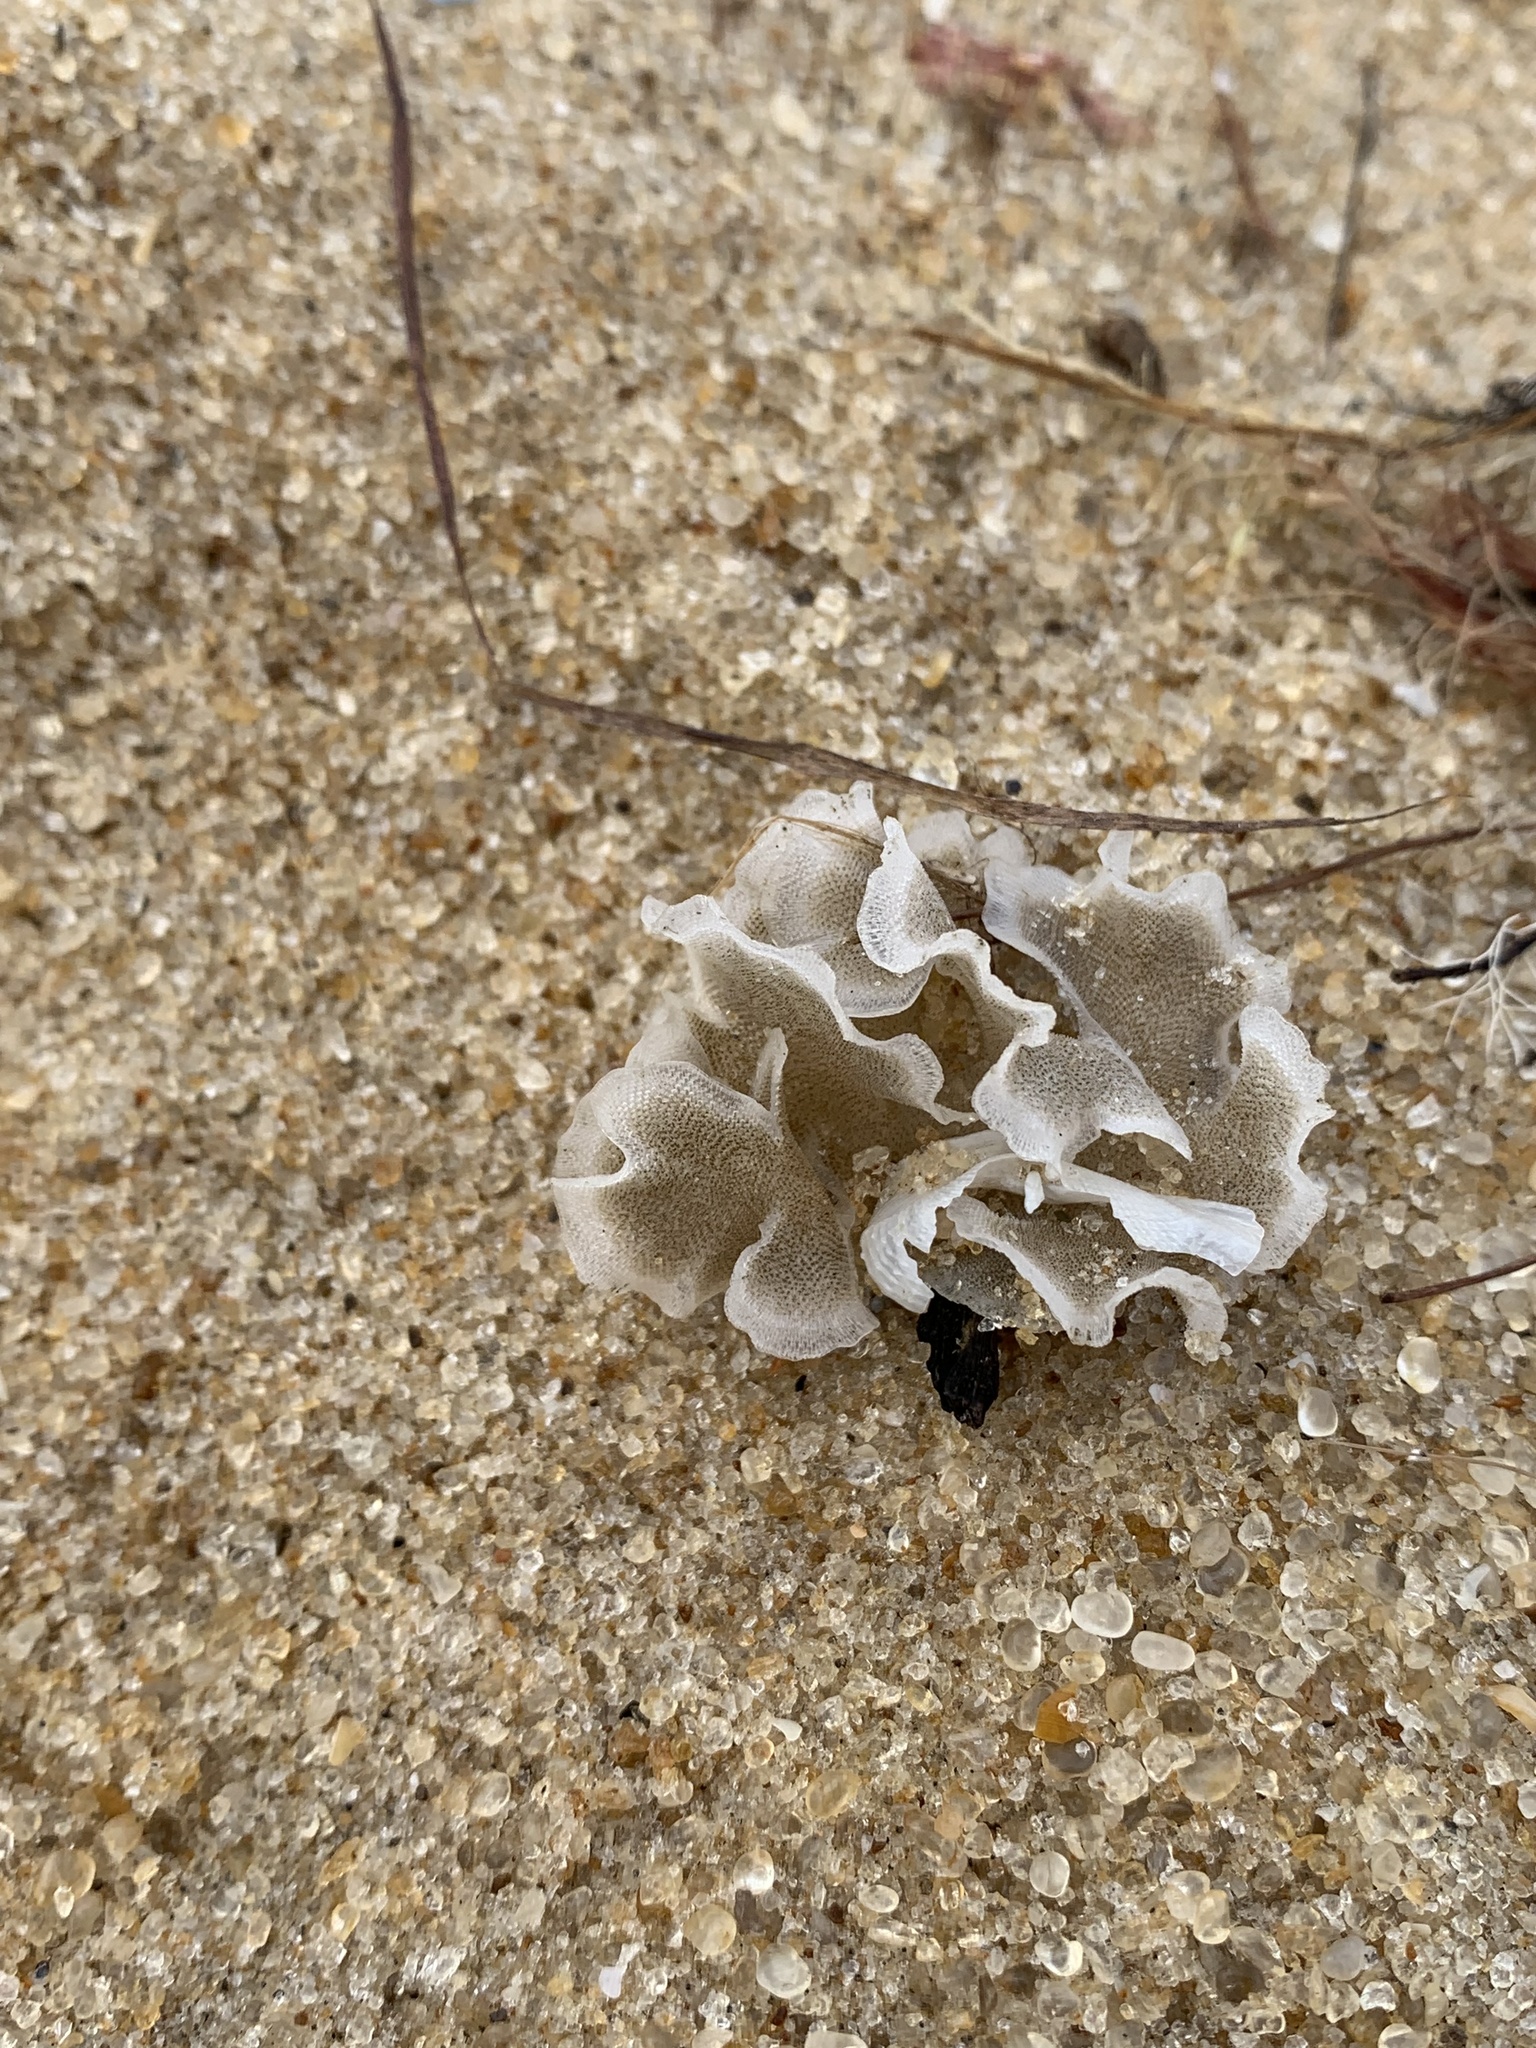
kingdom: Animalia
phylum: Bryozoa
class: Gymnolaemata
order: Cheilostomatida
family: Sinoflustridae
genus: Membraniporopsis
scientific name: Membraniporopsis tubigera
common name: Fouling bryozoan
